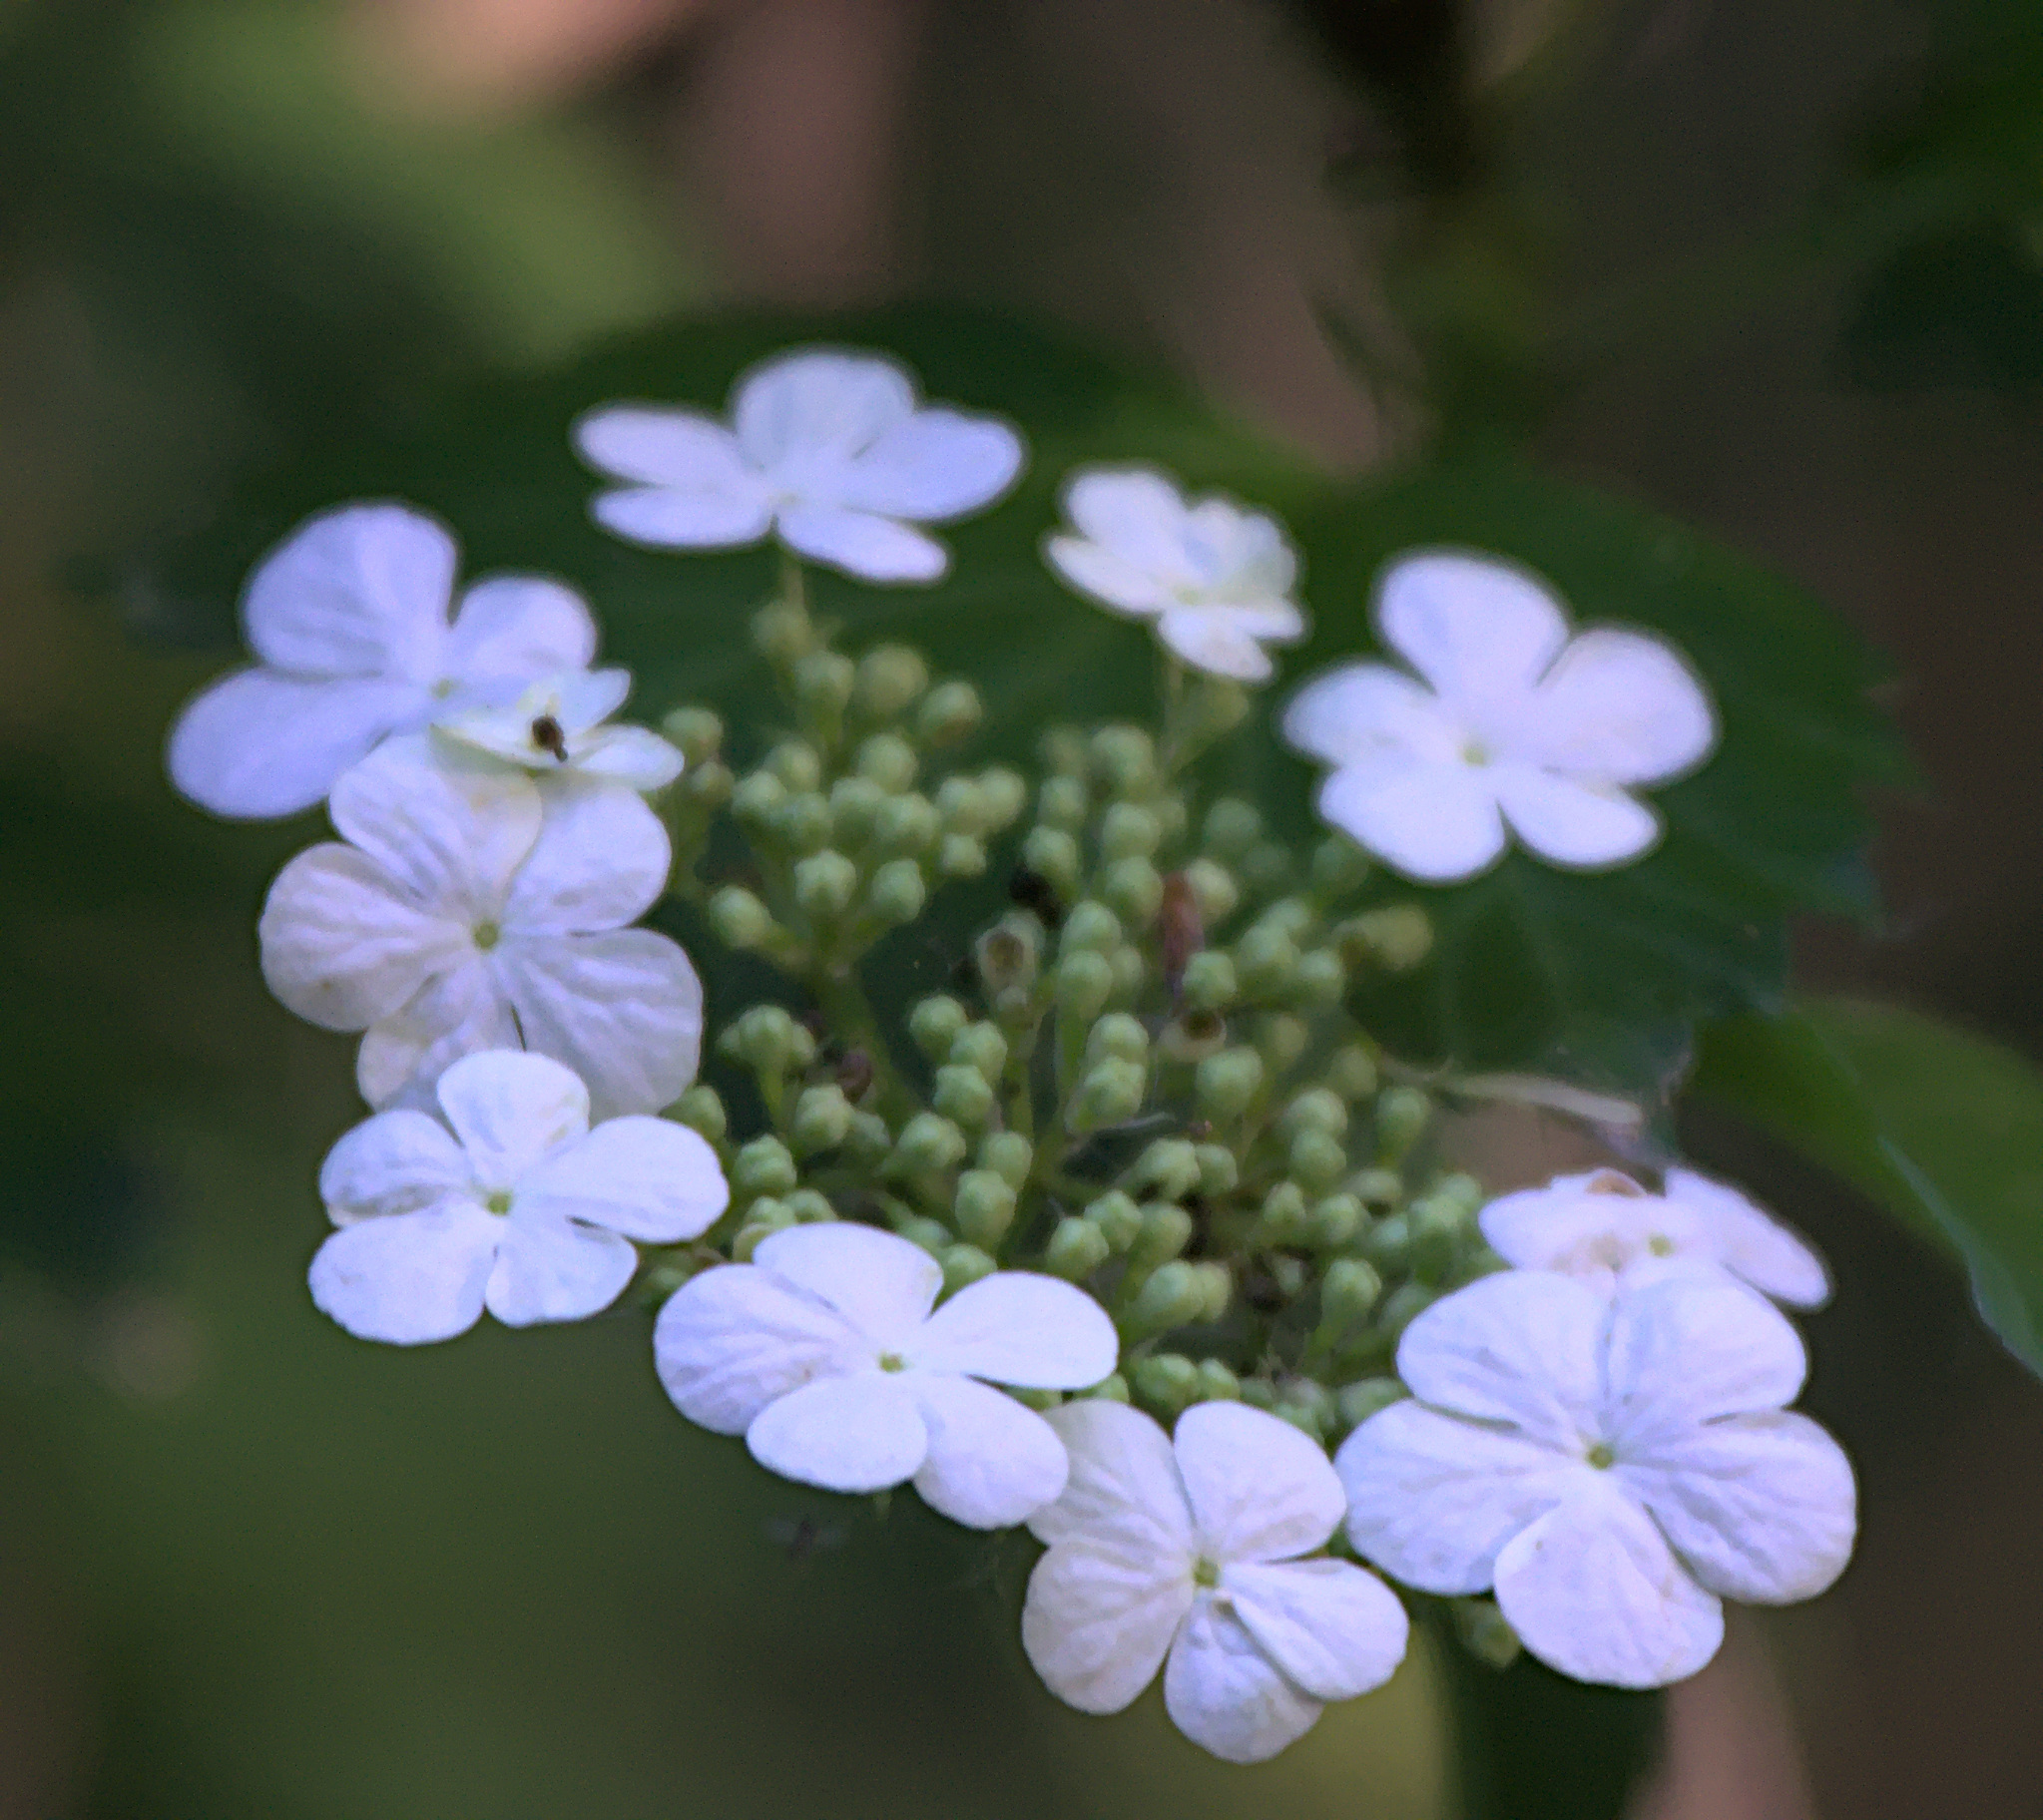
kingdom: Plantae
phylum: Tracheophyta
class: Magnoliopsida
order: Dipsacales
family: Viburnaceae
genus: Viburnum
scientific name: Viburnum opulus
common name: Guelder-rose
